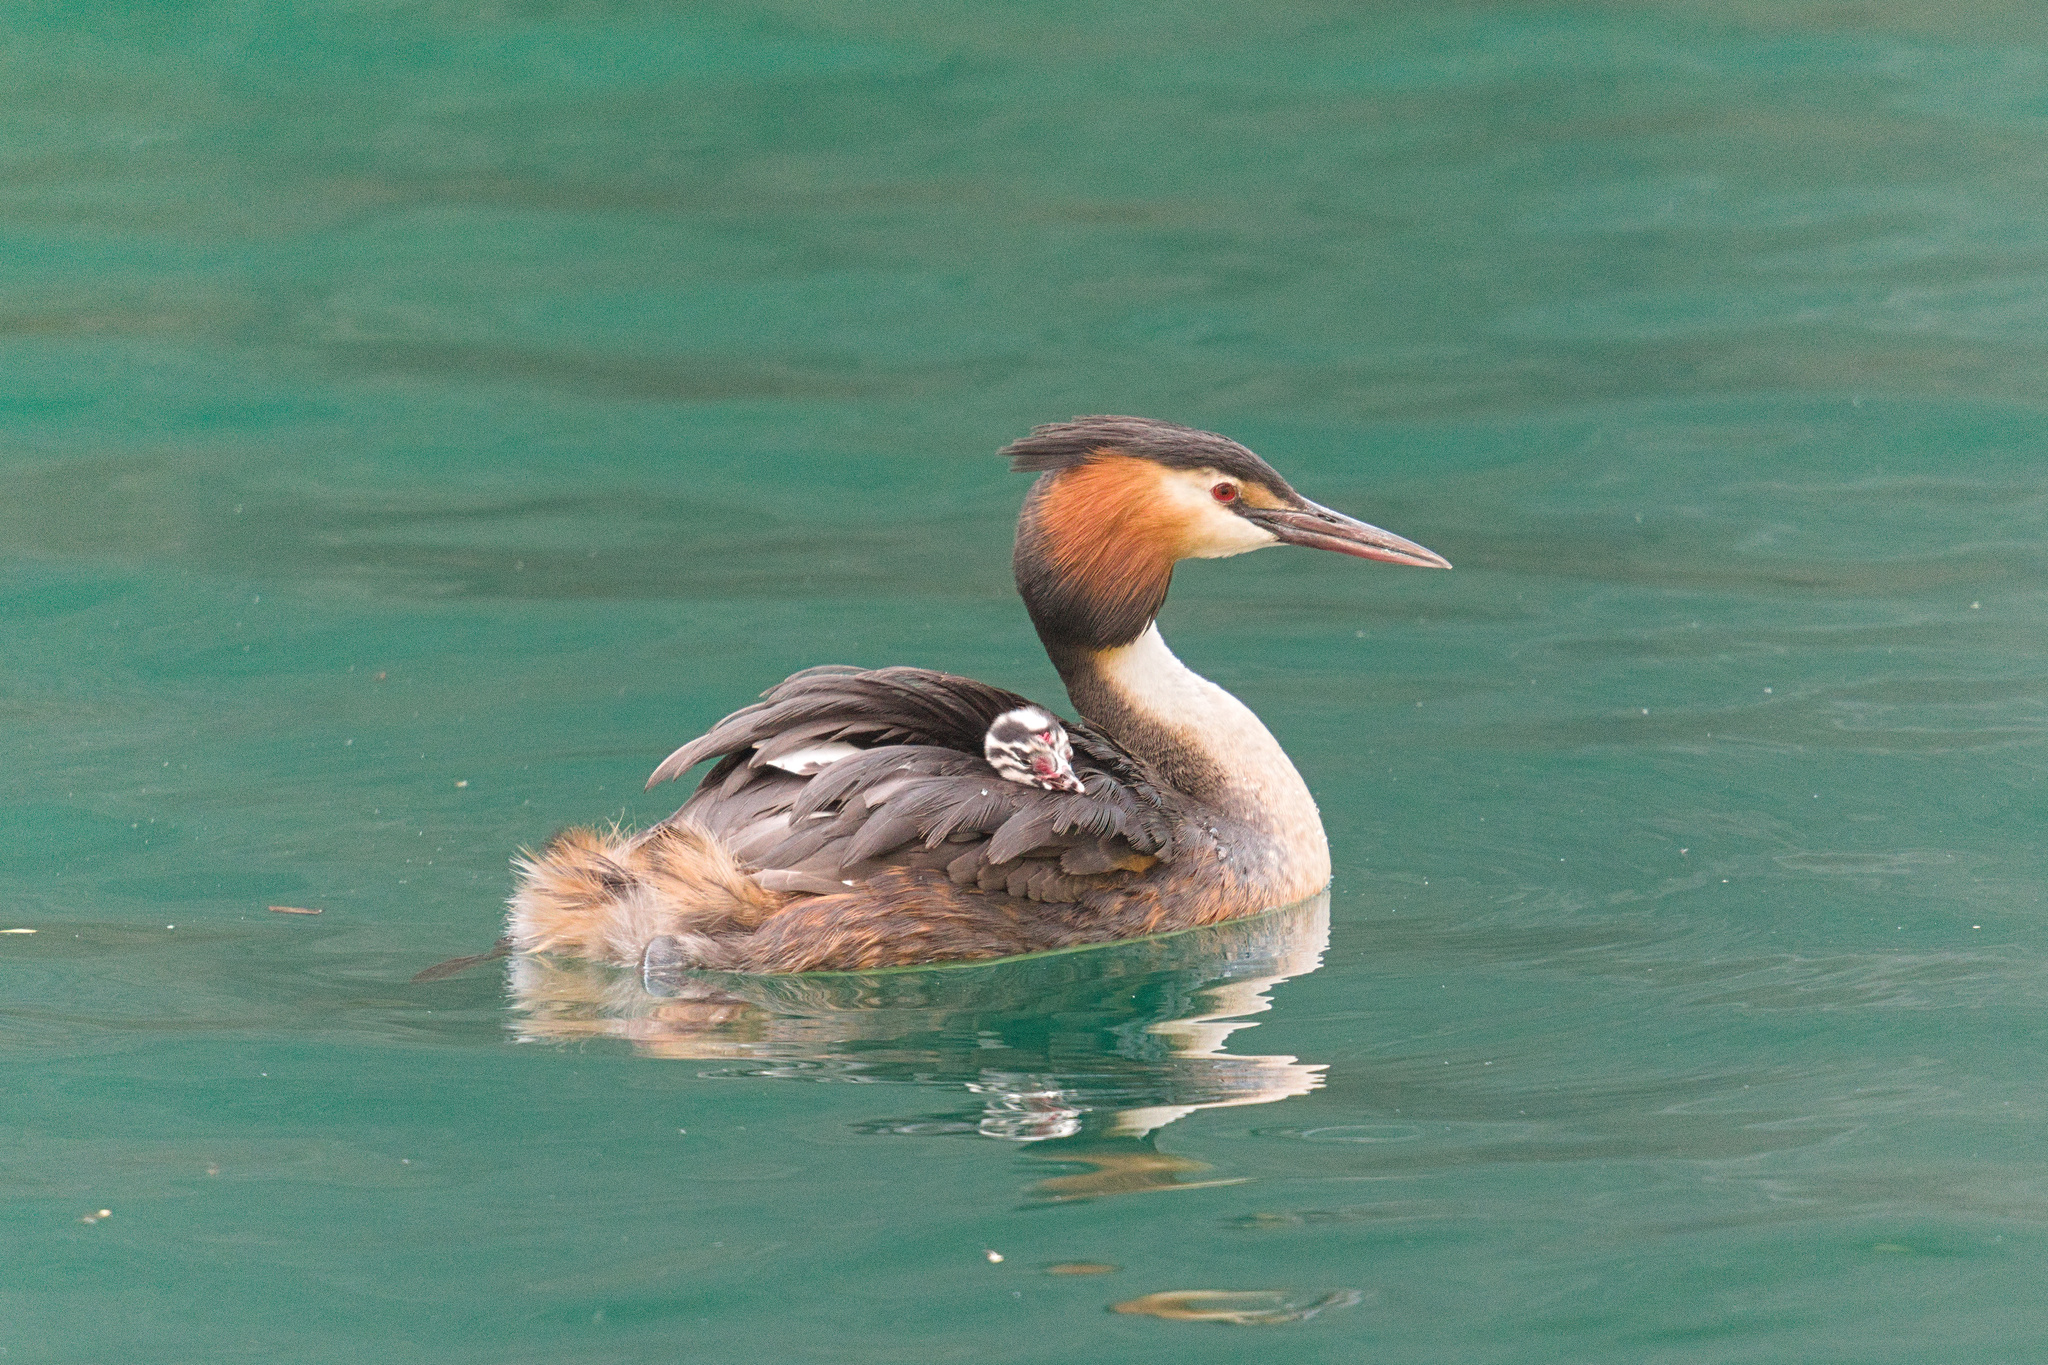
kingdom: Animalia
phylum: Chordata
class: Aves
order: Podicipediformes
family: Podicipedidae
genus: Podiceps
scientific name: Podiceps cristatus
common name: Great crested grebe
